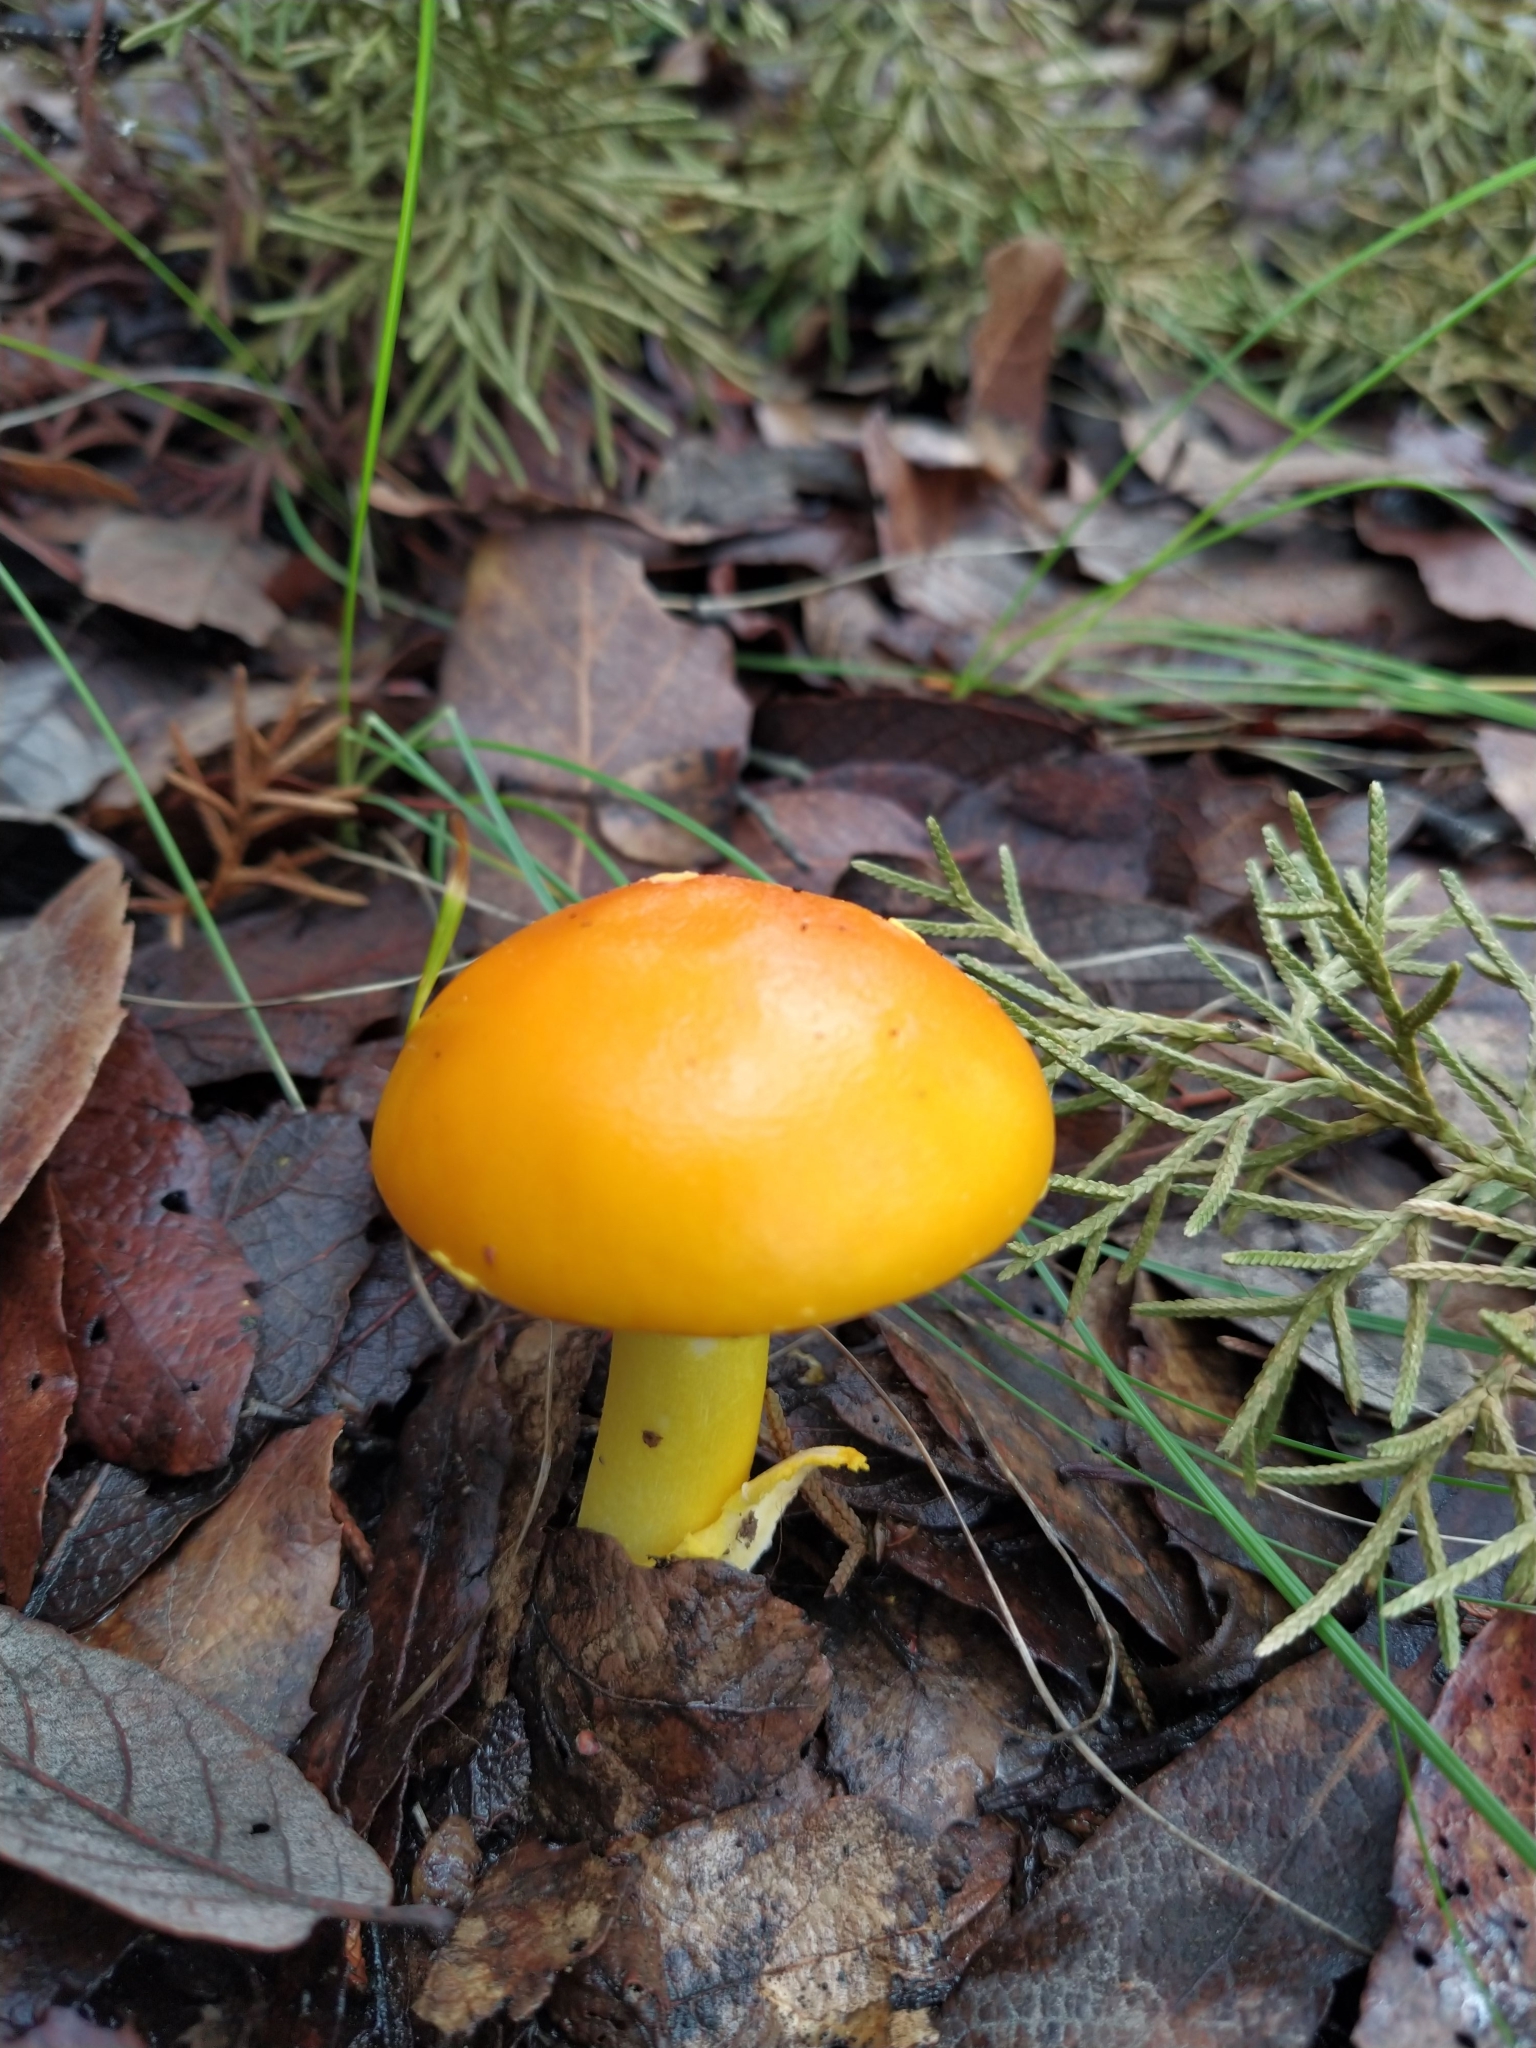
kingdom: Fungi
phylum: Basidiomycota
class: Agaricomycetes
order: Agaricales
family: Amanitaceae
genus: Amanita
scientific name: Amanita flavoconia
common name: Yellow patches
